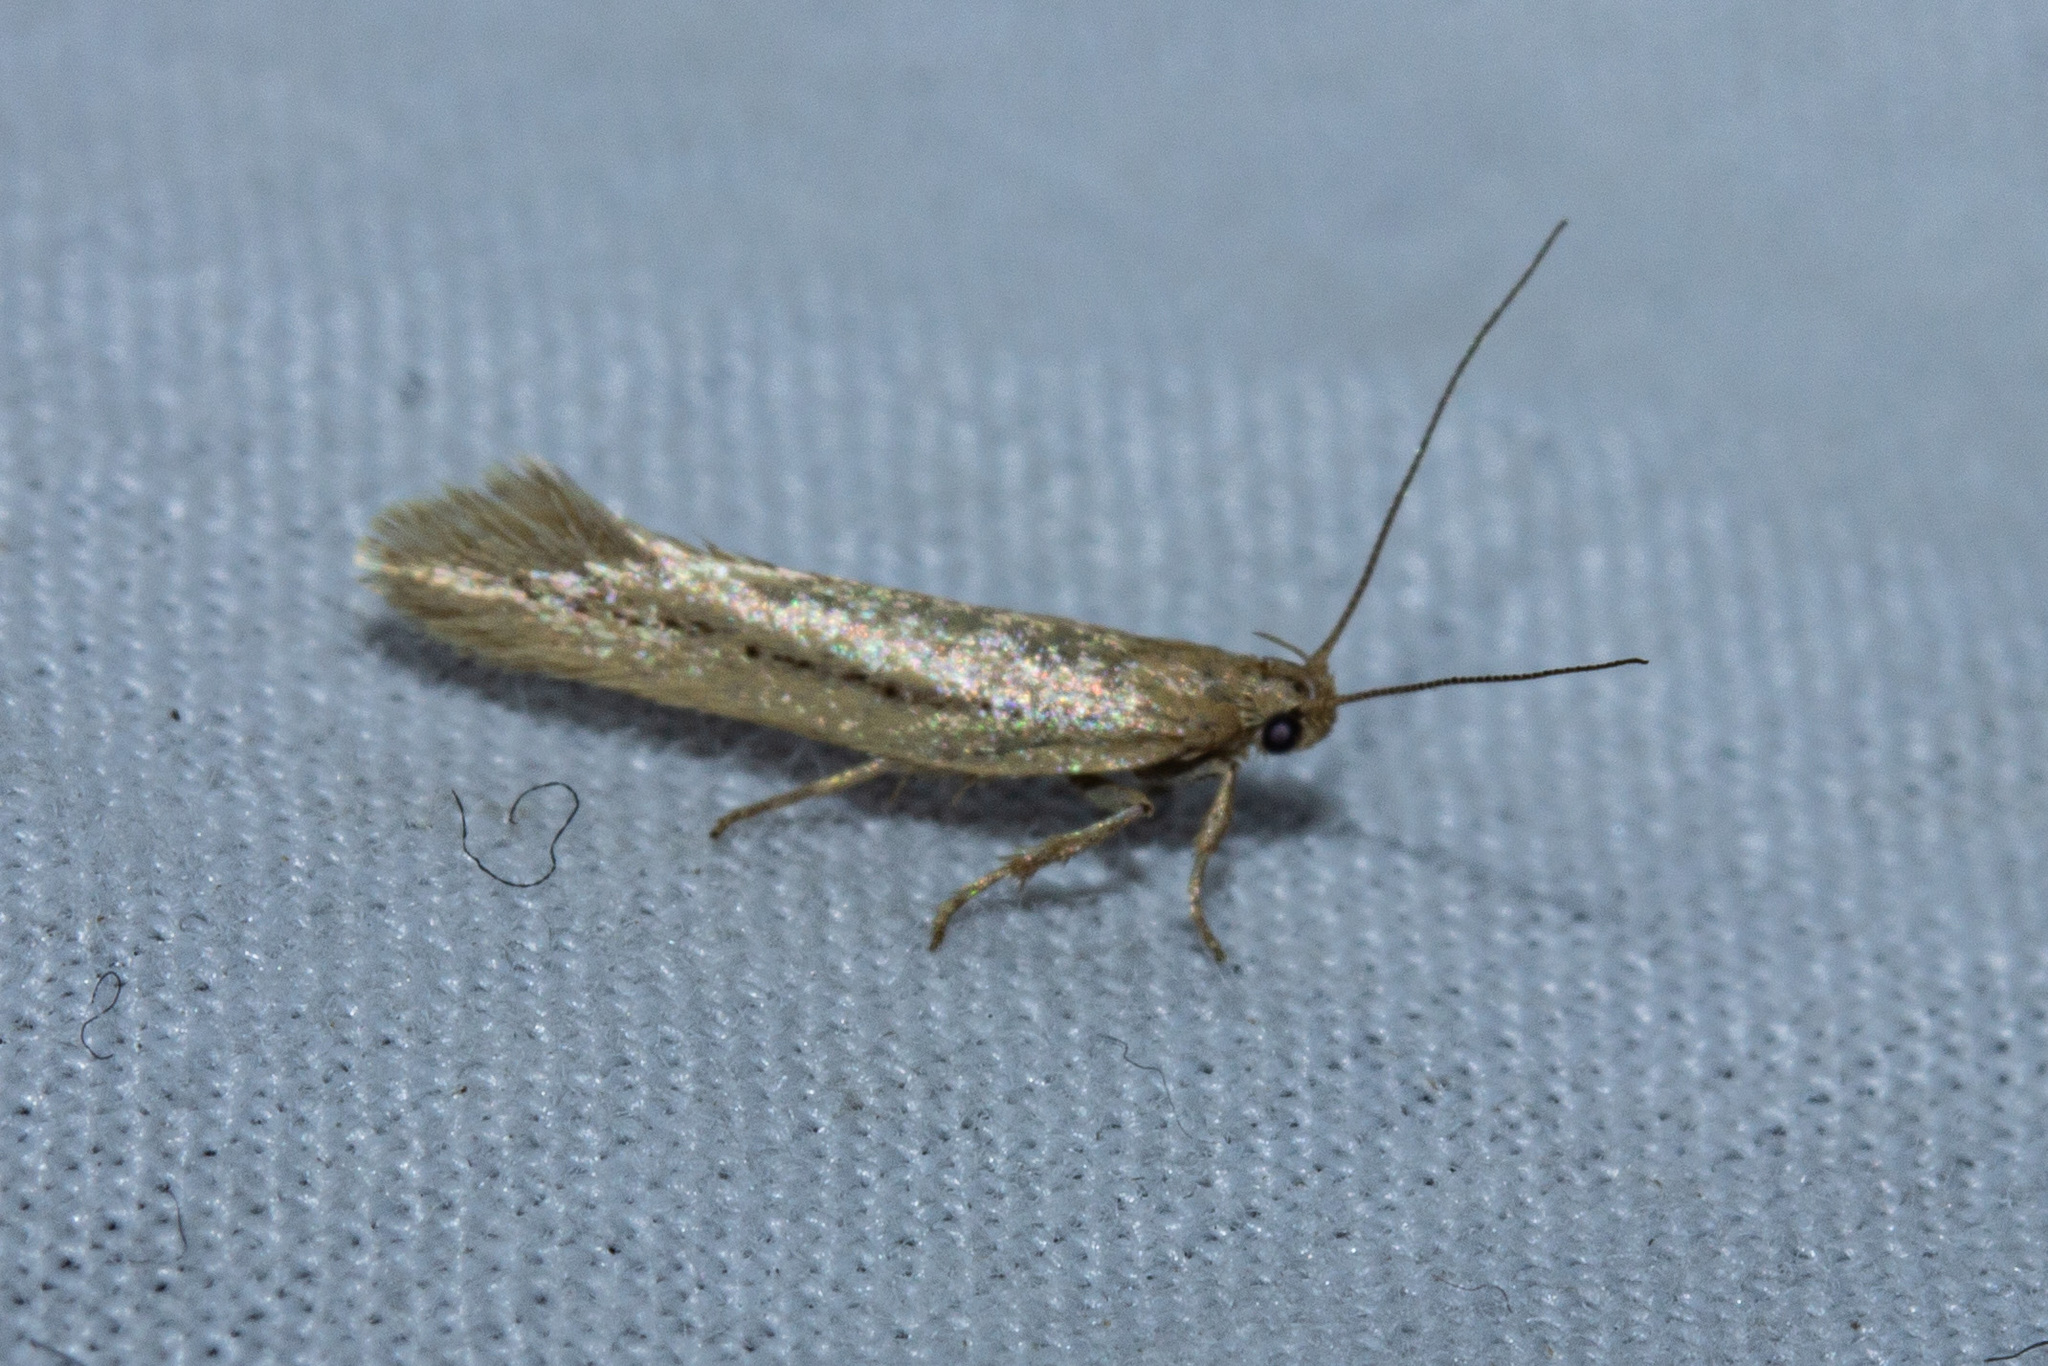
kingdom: Animalia
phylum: Arthropoda
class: Insecta
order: Lepidoptera
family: Oecophoridae
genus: Tingena
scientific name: Tingena maranta
